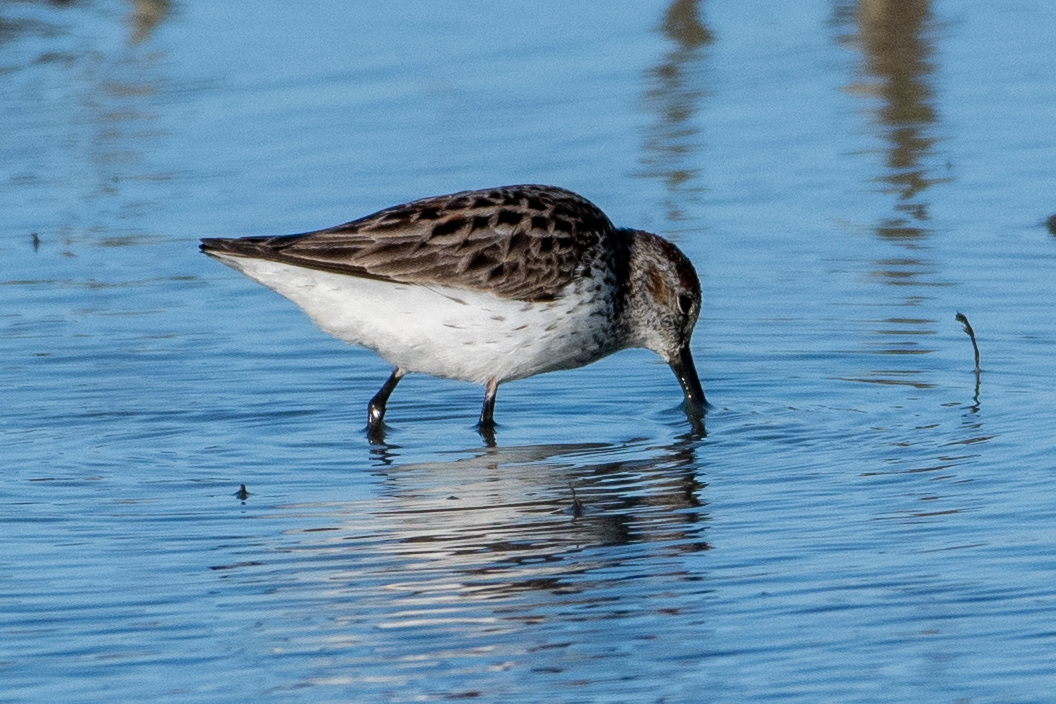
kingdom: Animalia
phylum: Chordata
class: Aves
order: Charadriiformes
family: Scolopacidae
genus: Calidris
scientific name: Calidris mauri
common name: Western sandpiper
